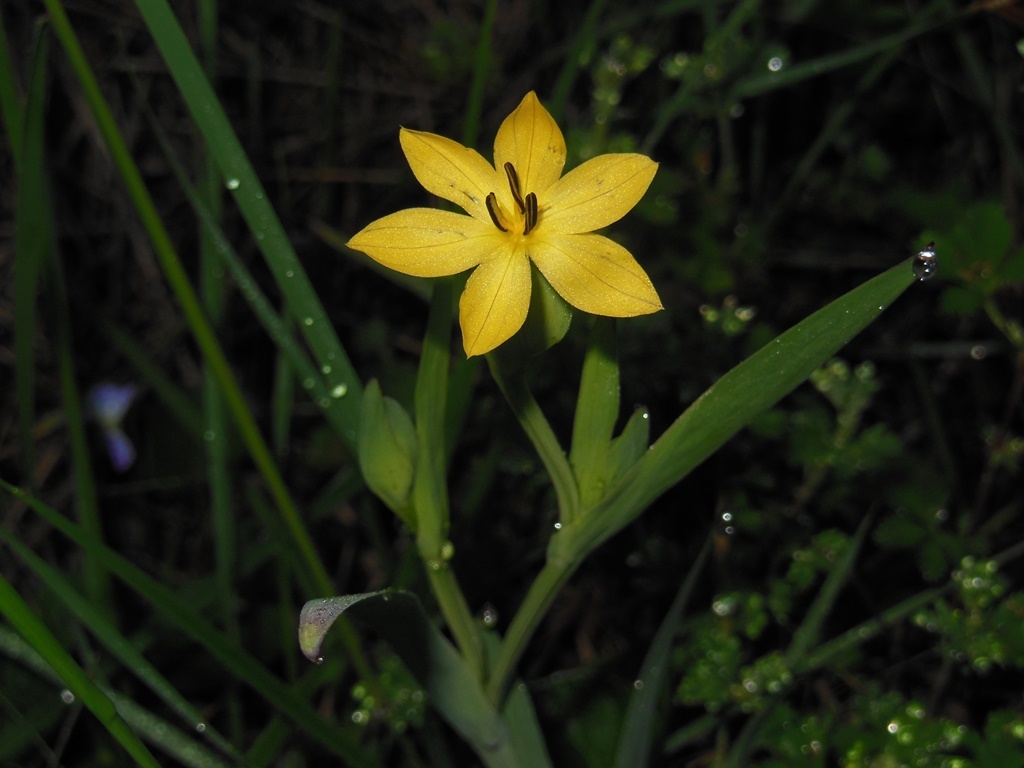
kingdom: Plantae
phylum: Tracheophyta
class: Liliopsida
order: Asparagales
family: Iridaceae
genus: Sisyrinchium
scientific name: Sisyrinchium angustissimum
